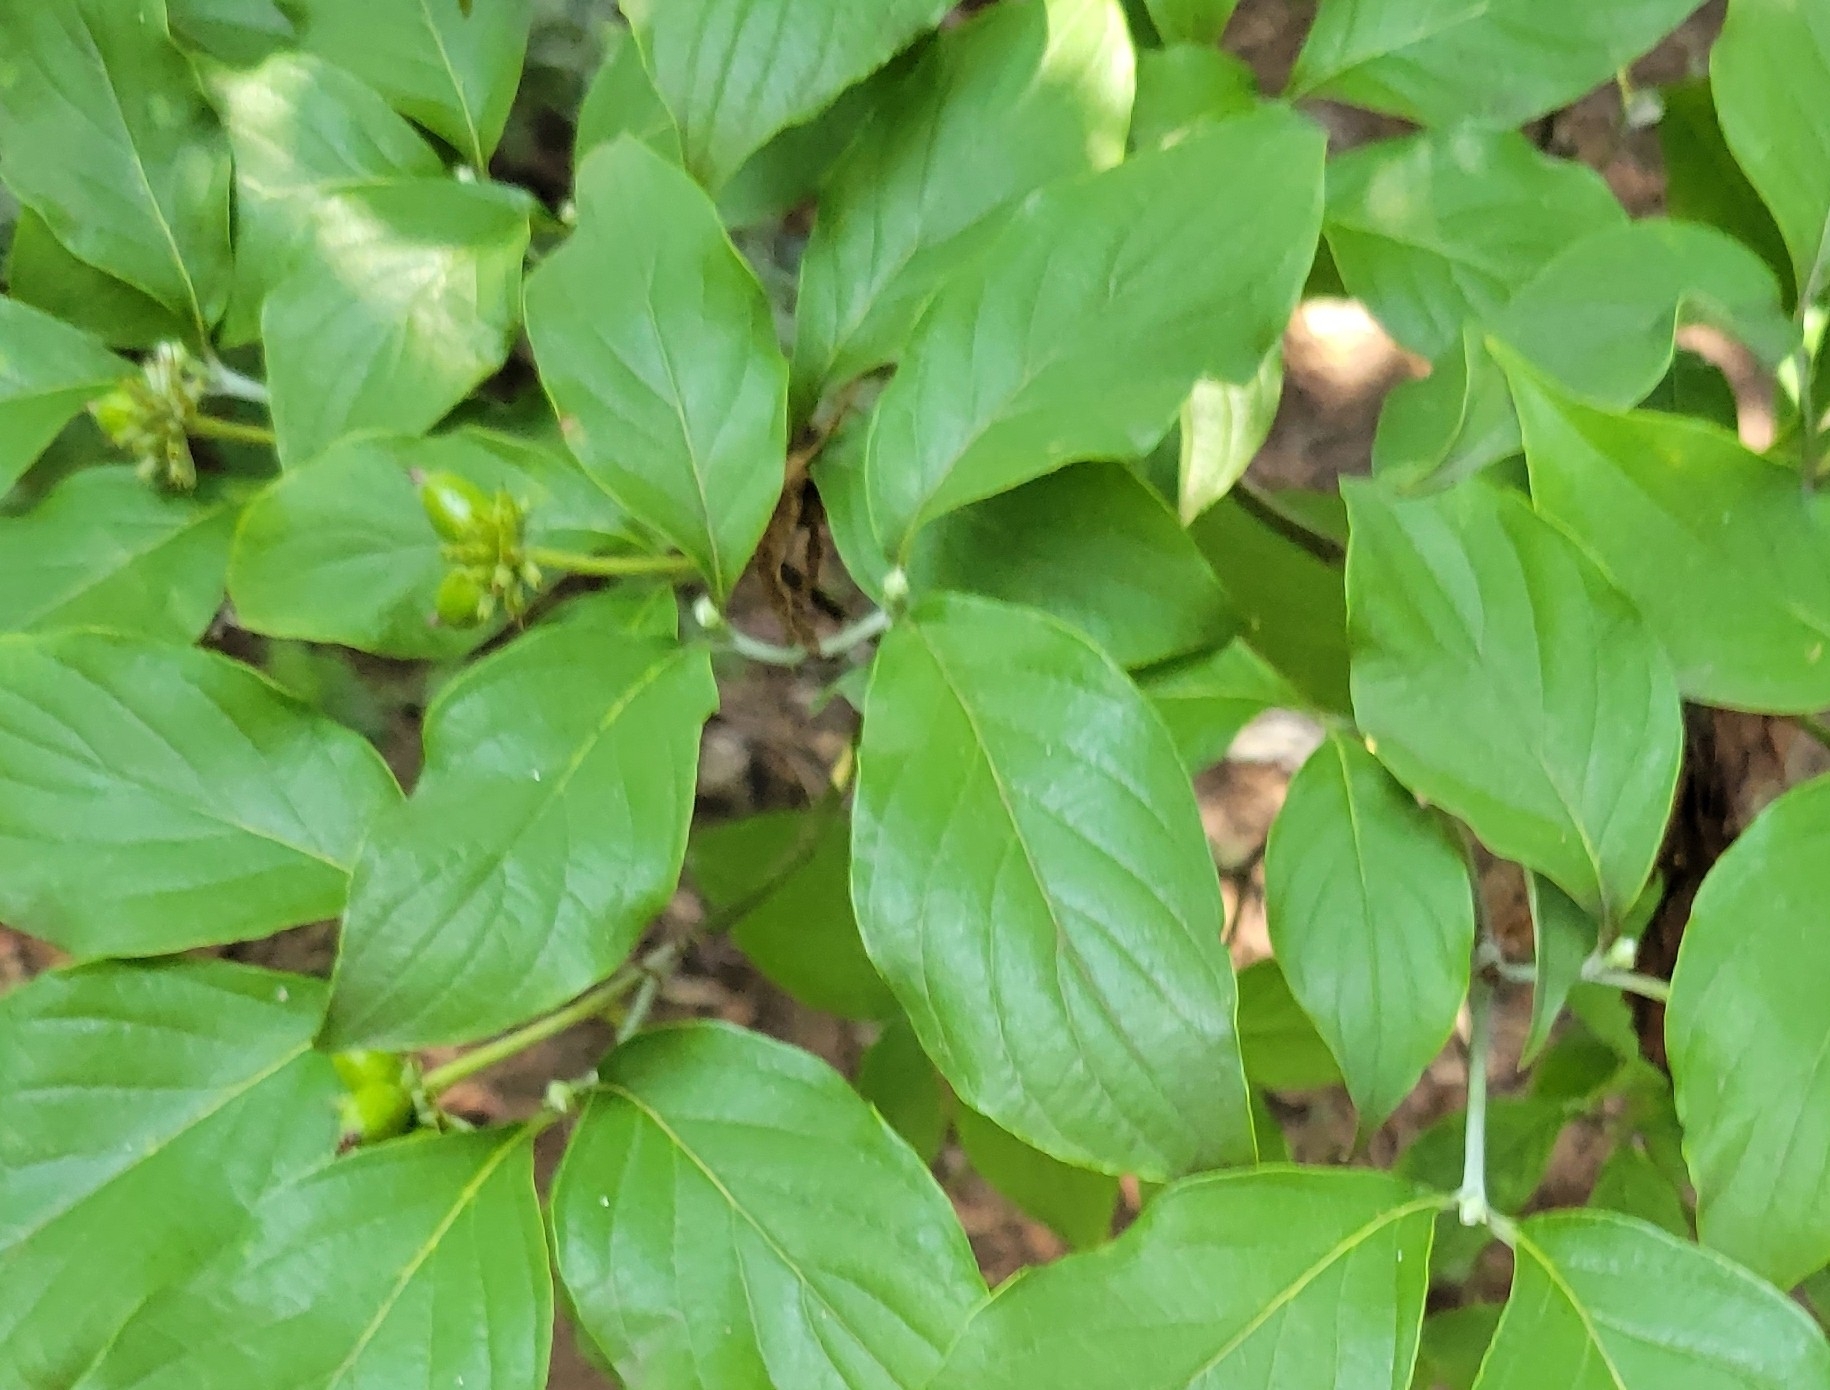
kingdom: Plantae
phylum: Tracheophyta
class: Magnoliopsida
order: Cornales
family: Cornaceae
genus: Cornus
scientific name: Cornus florida
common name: Flowering dogwood
